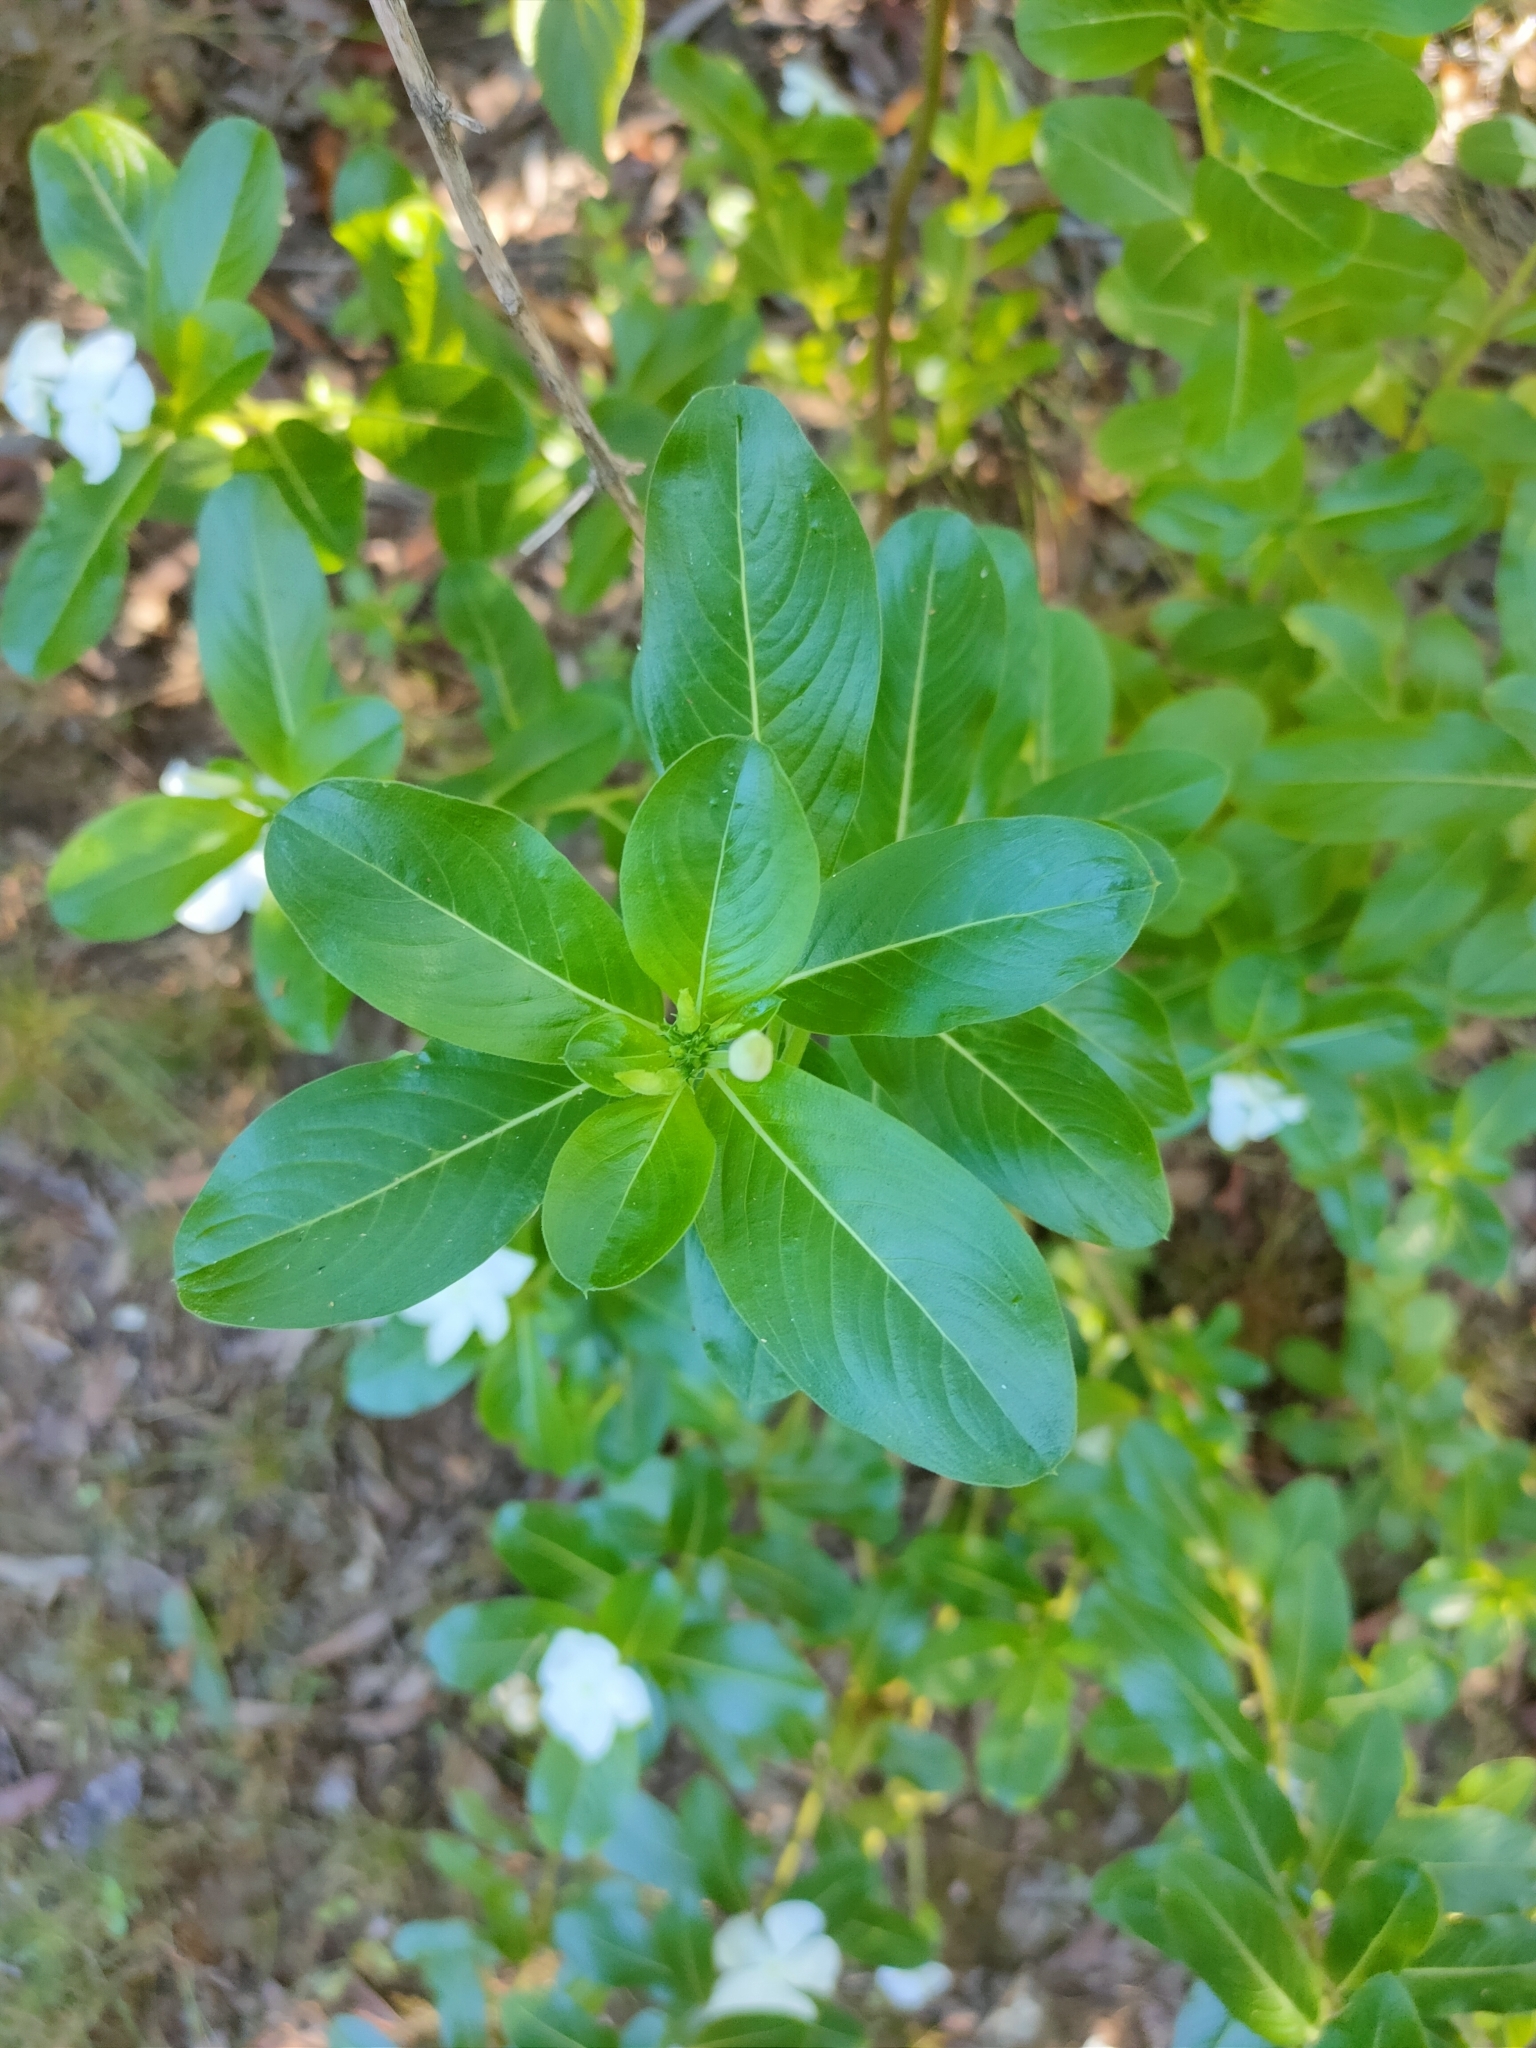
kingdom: Plantae
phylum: Tracheophyta
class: Magnoliopsida
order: Gentianales
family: Apocynaceae
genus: Catharanthus
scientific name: Catharanthus roseus
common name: Madagascar periwinkle
